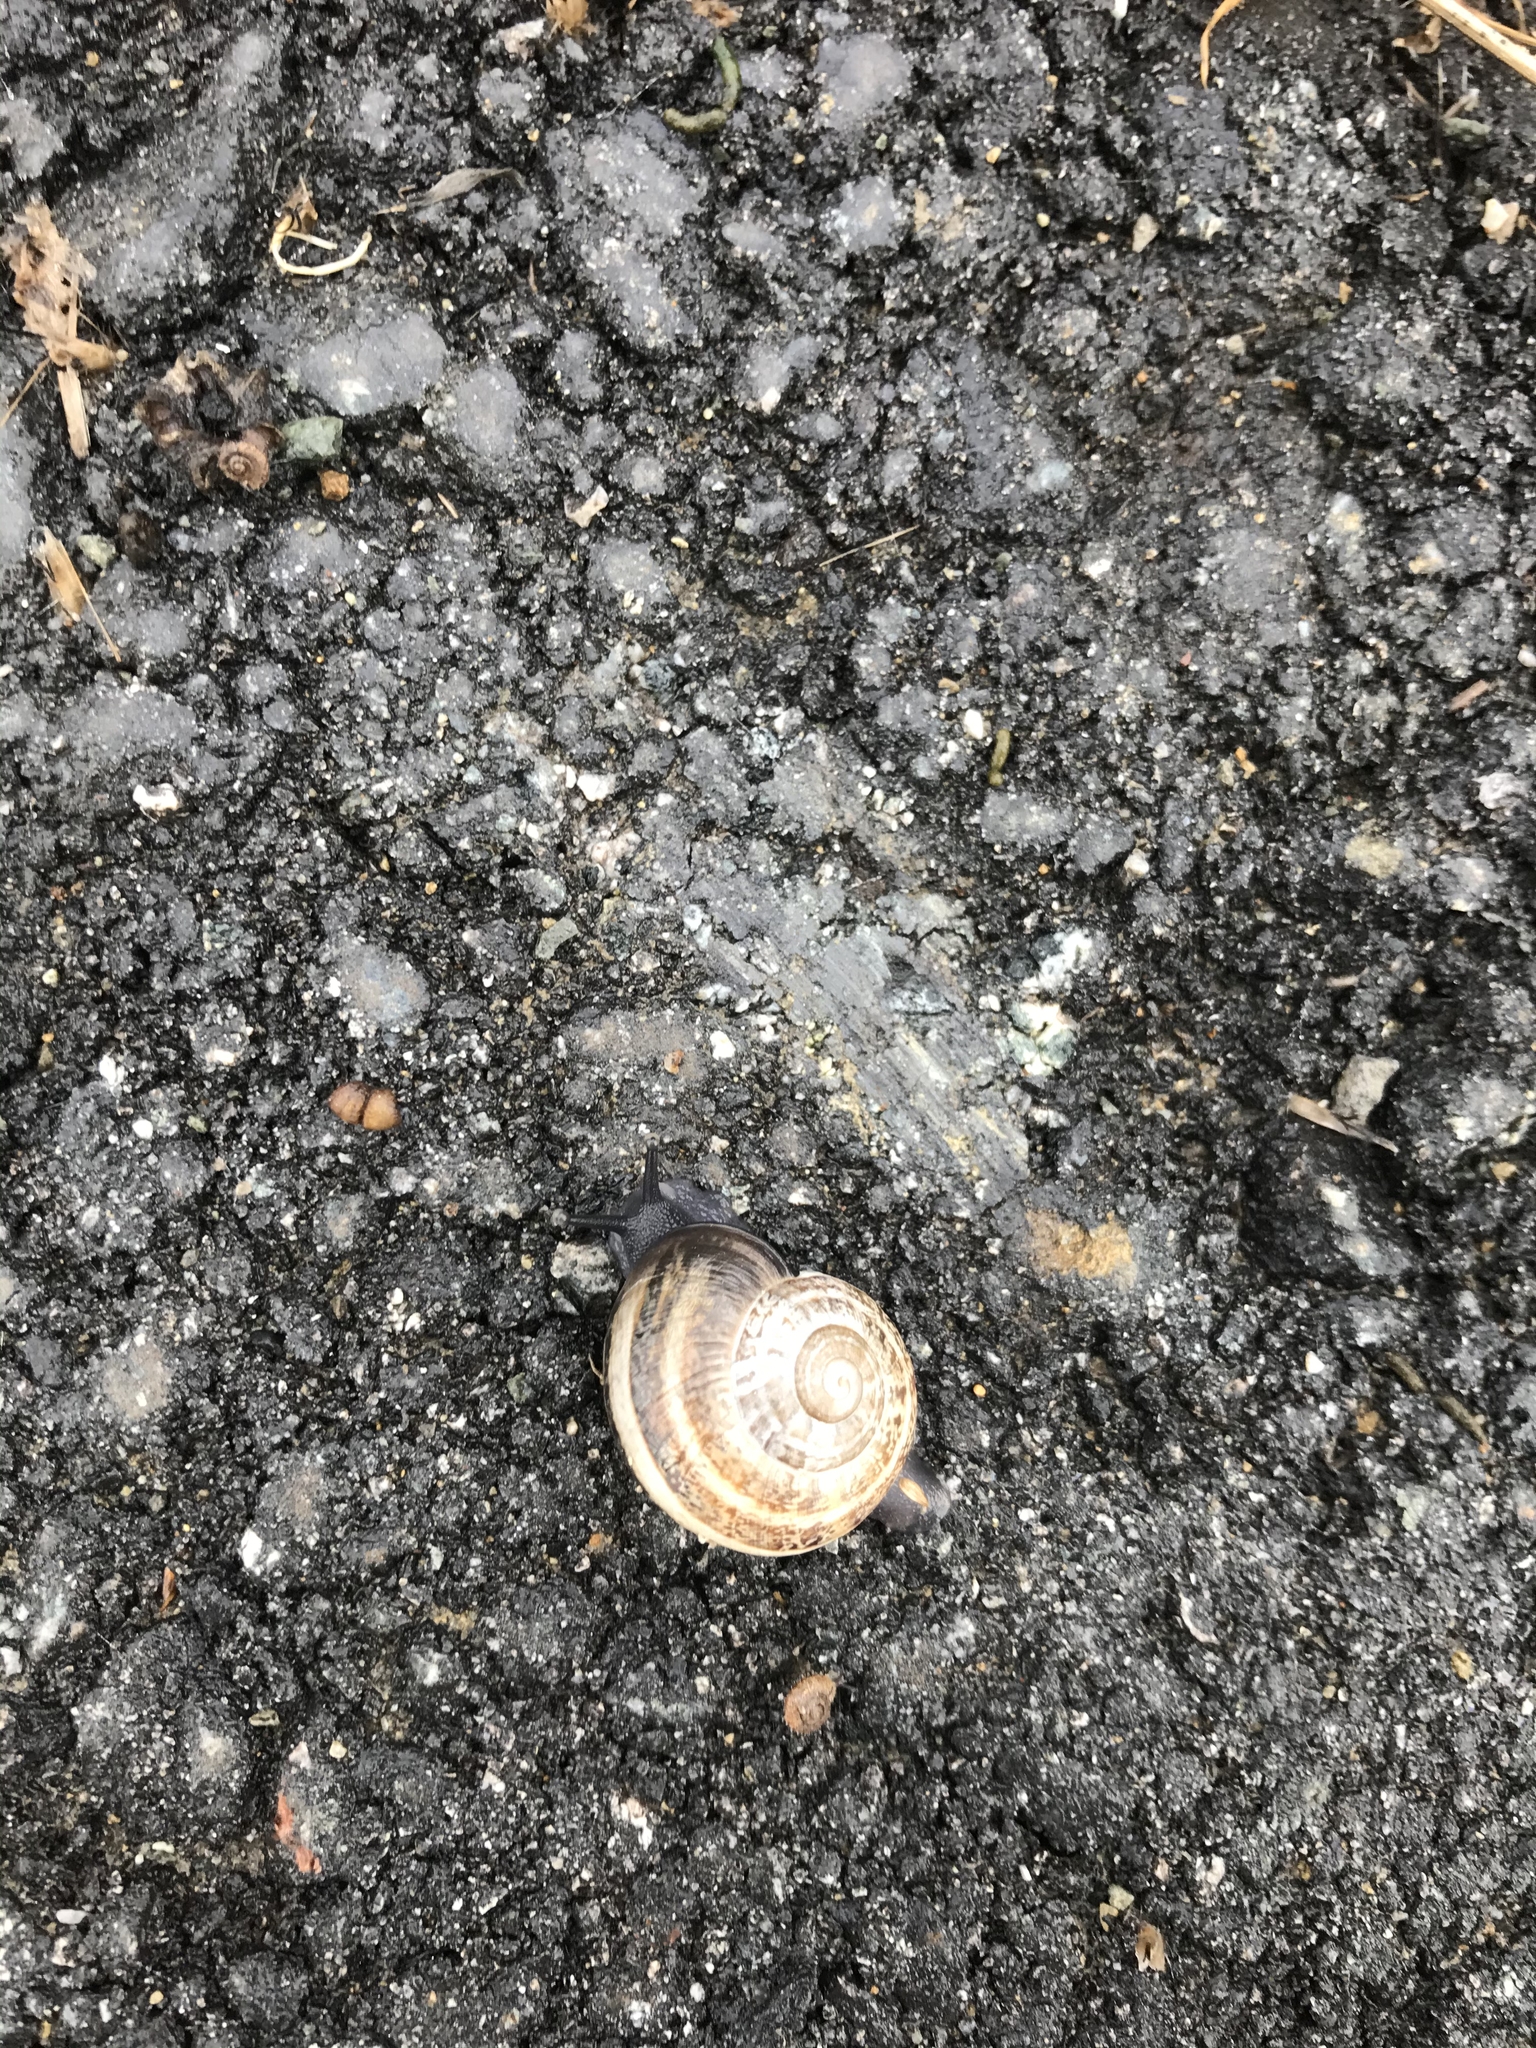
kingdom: Animalia
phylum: Mollusca
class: Gastropoda
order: Stylommatophora
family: Helicidae
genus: Otala
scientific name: Otala lactea
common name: Milk snail
